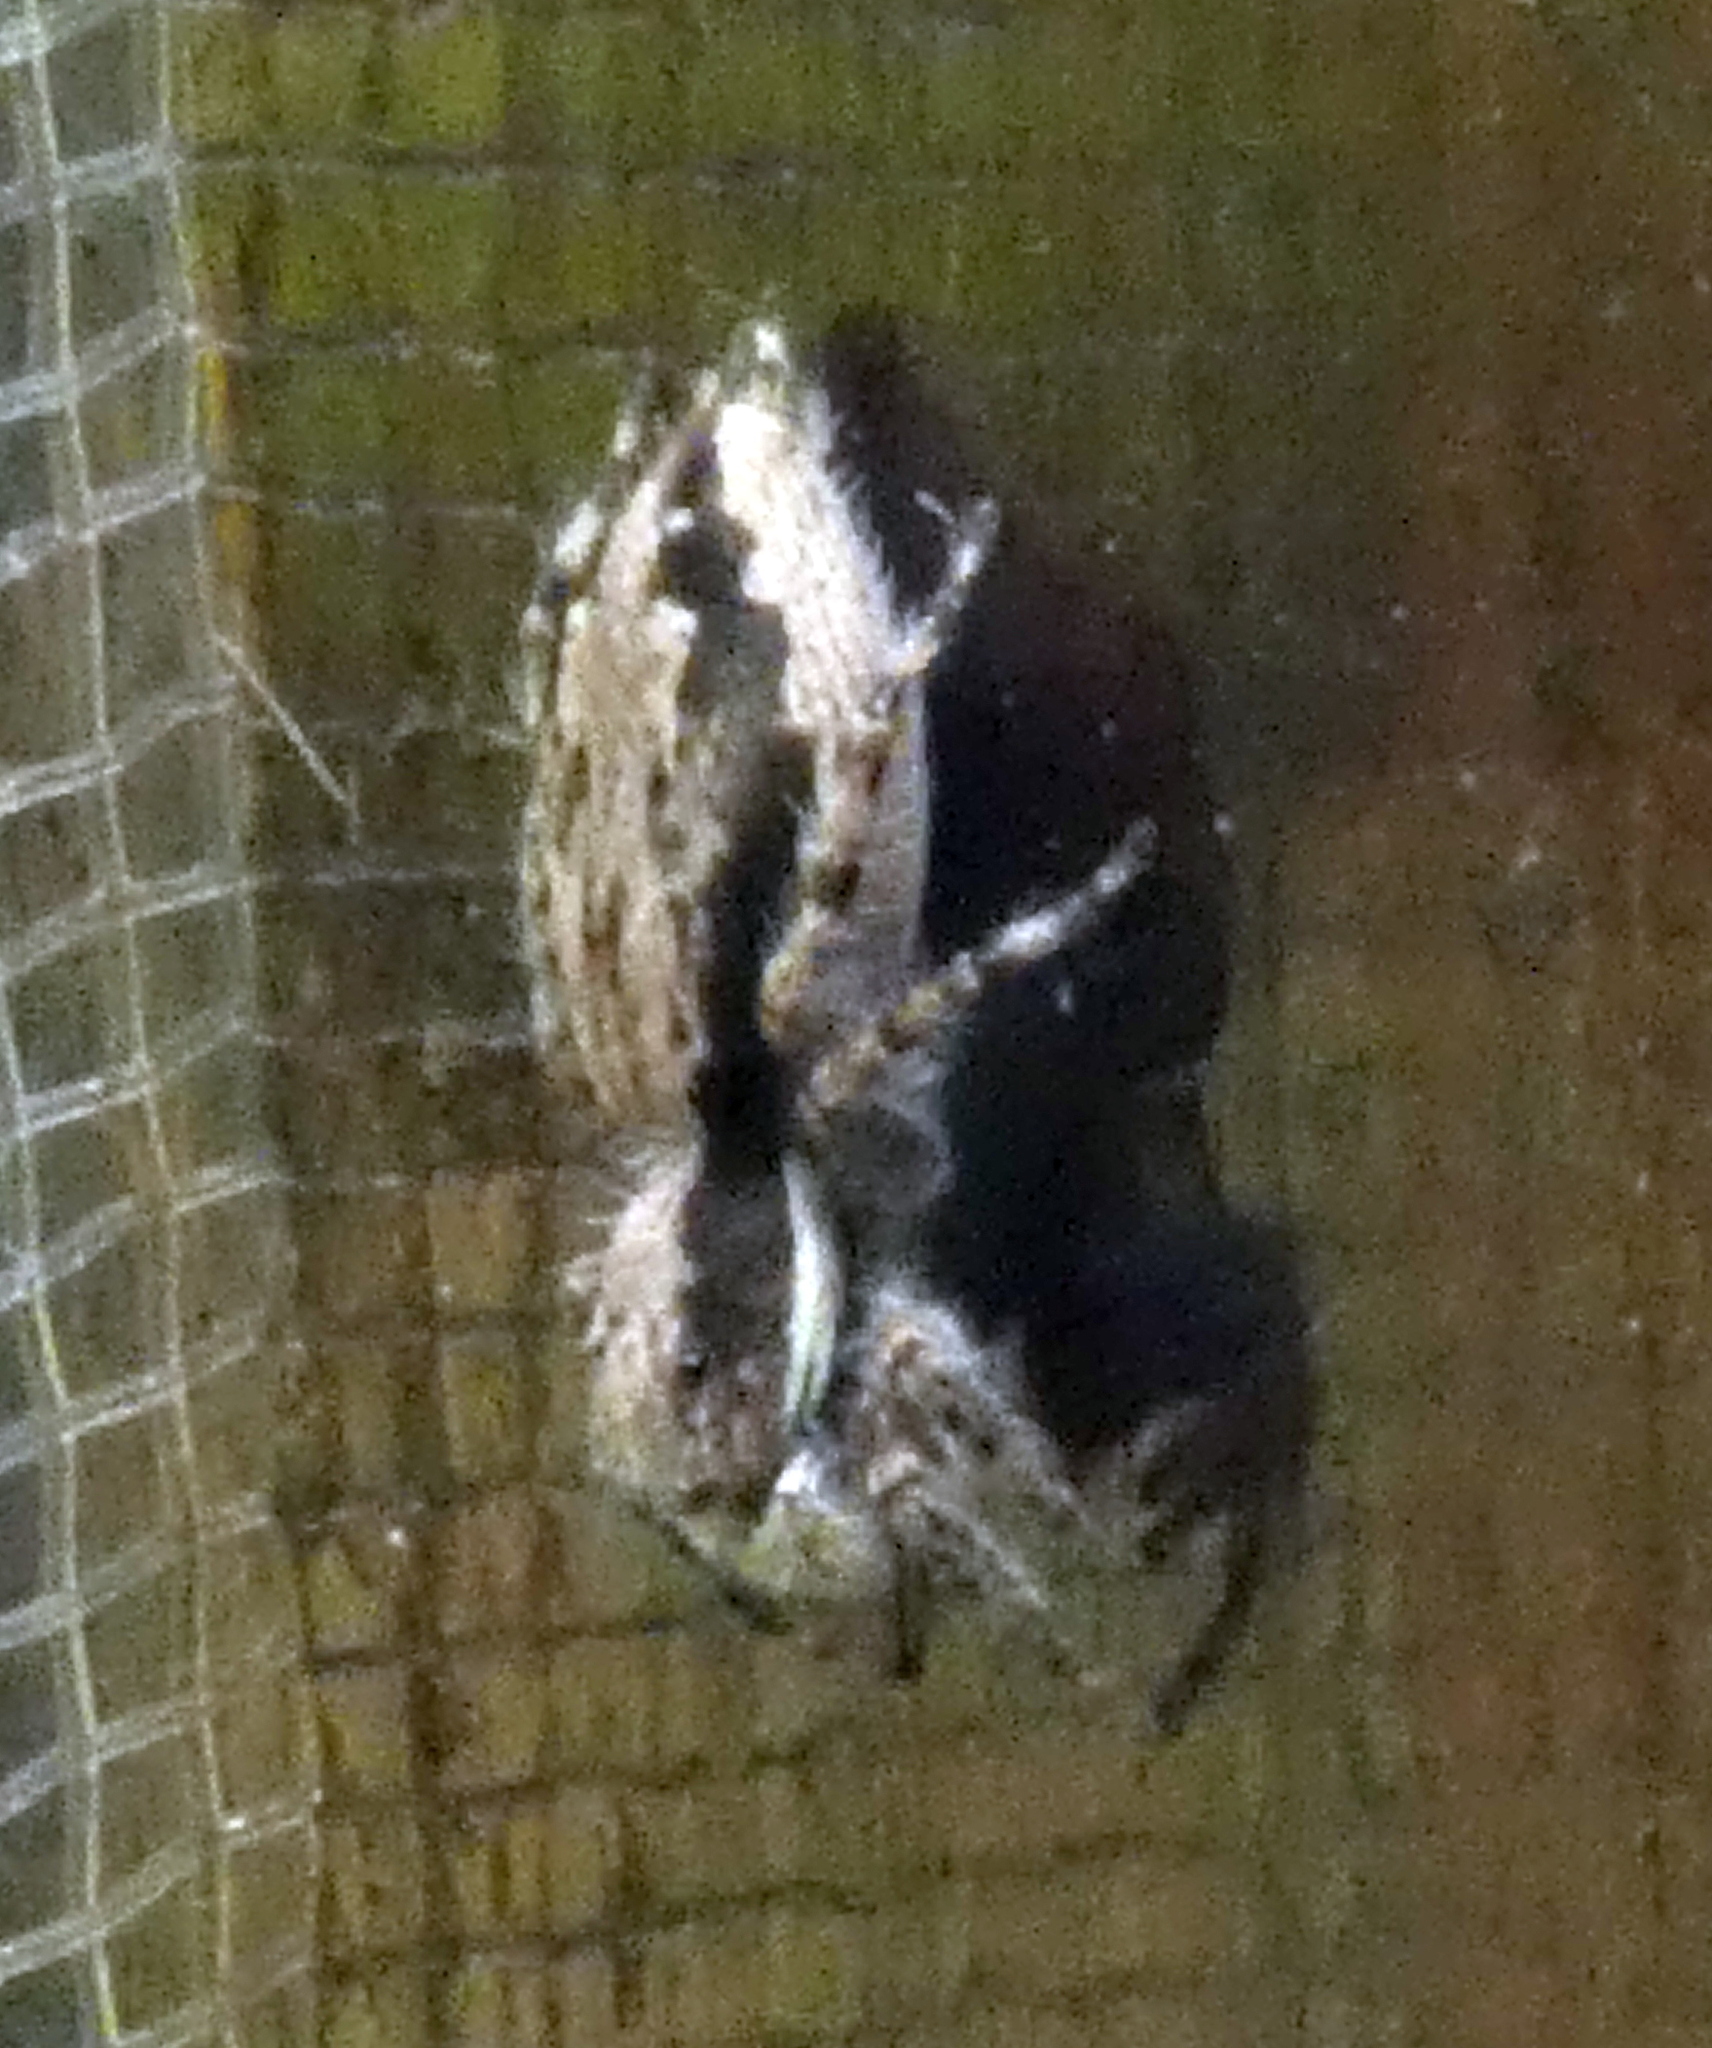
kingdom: Animalia
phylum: Arthropoda
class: Arachnida
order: Araneae
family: Salticidae
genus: Menemerus
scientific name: Menemerus bivittatus
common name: Gray wall jumper
